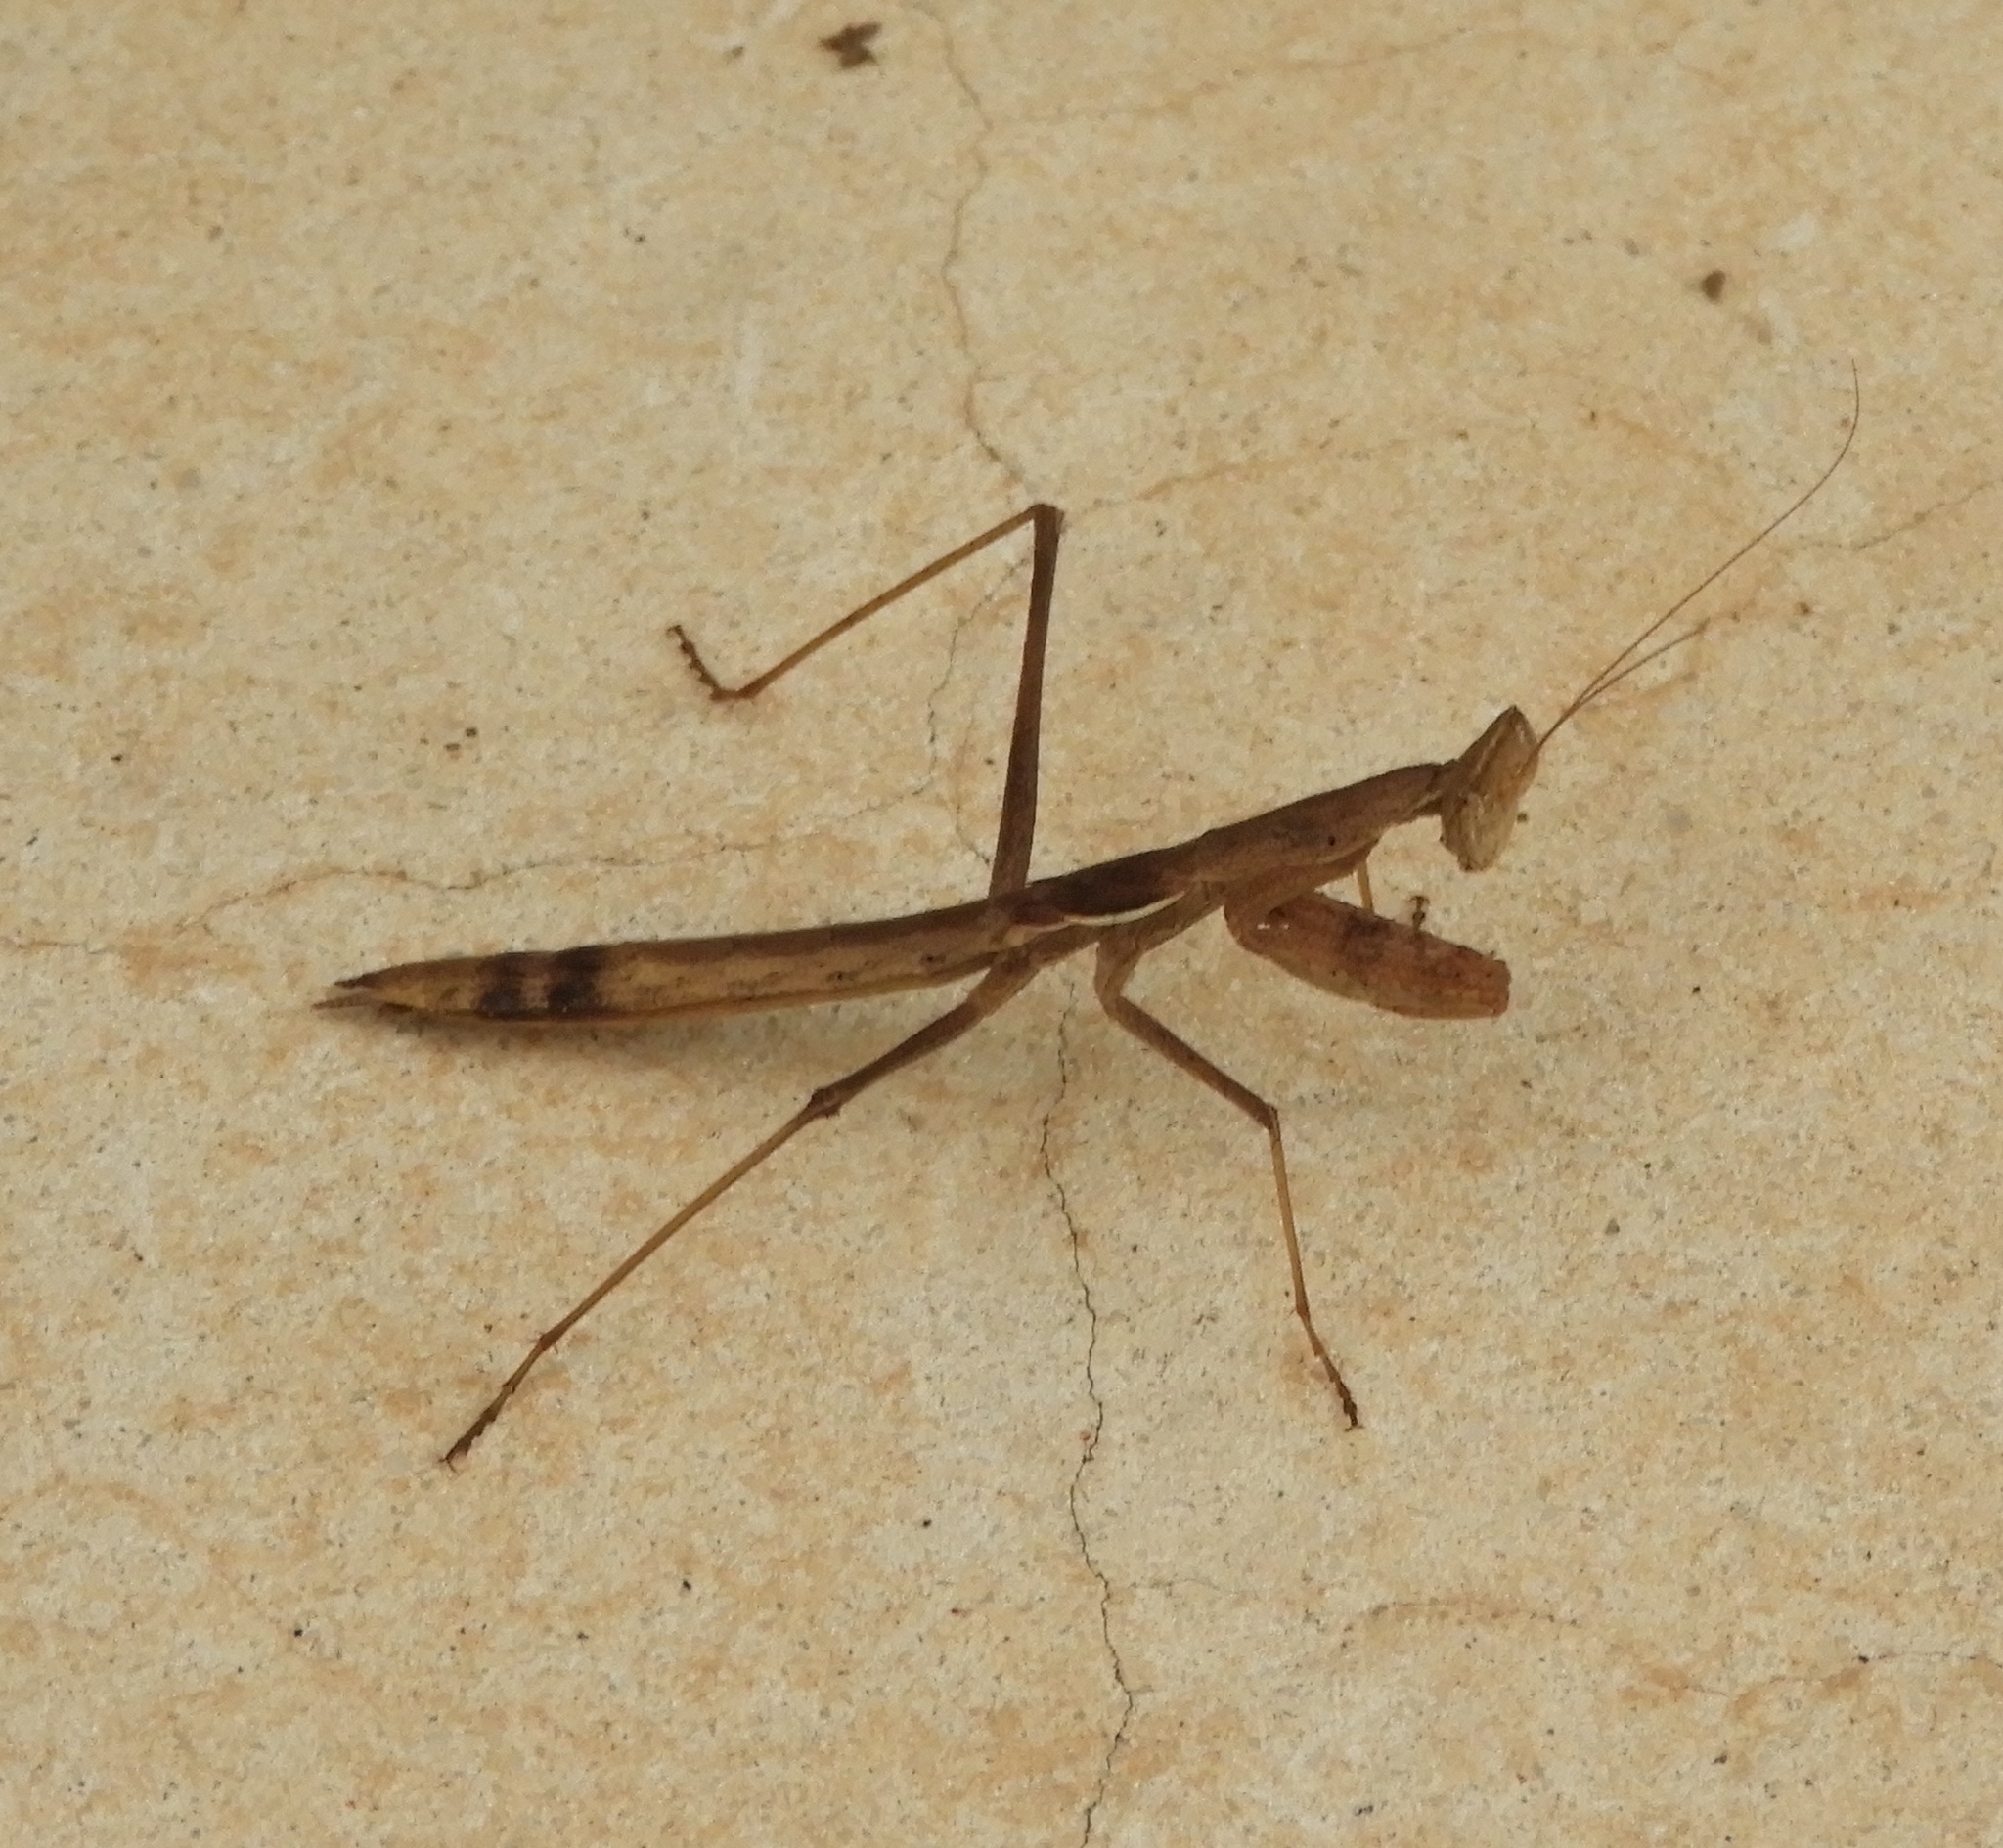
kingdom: Animalia
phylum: Arthropoda
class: Insecta
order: Mantodea
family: Amelidae
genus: Yersinia
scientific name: Yersinia mexicana
